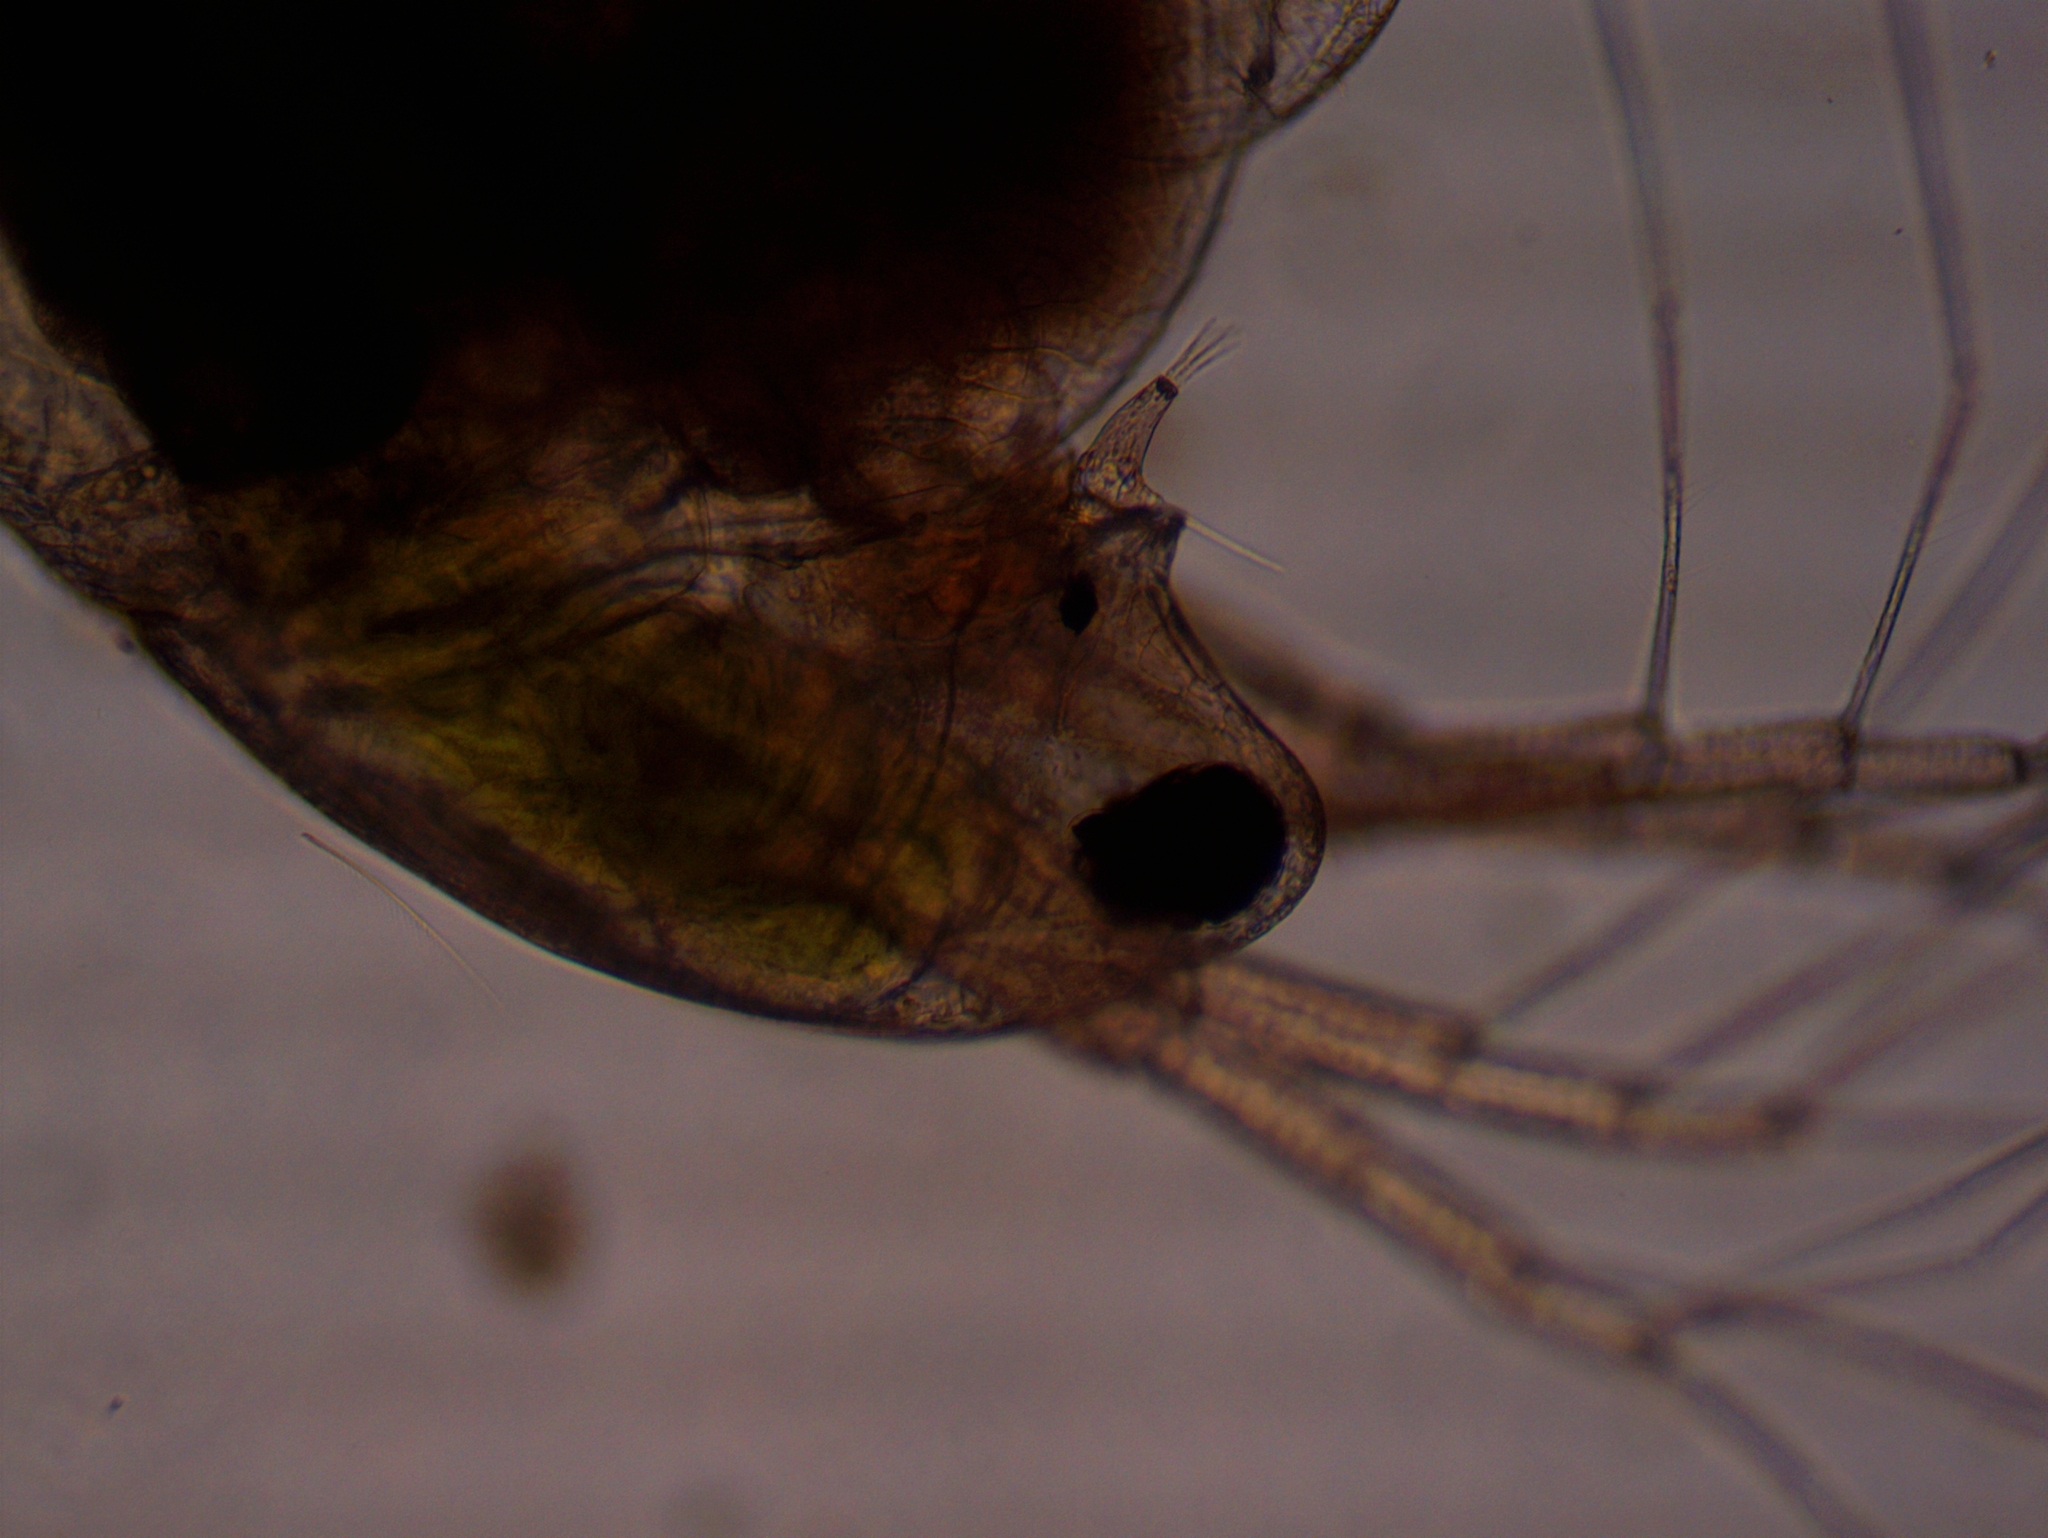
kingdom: Animalia
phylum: Arthropoda
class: Branchiopoda
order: Diplostraca
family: Daphniidae
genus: Simocephalus
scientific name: Simocephalus exspinosus
